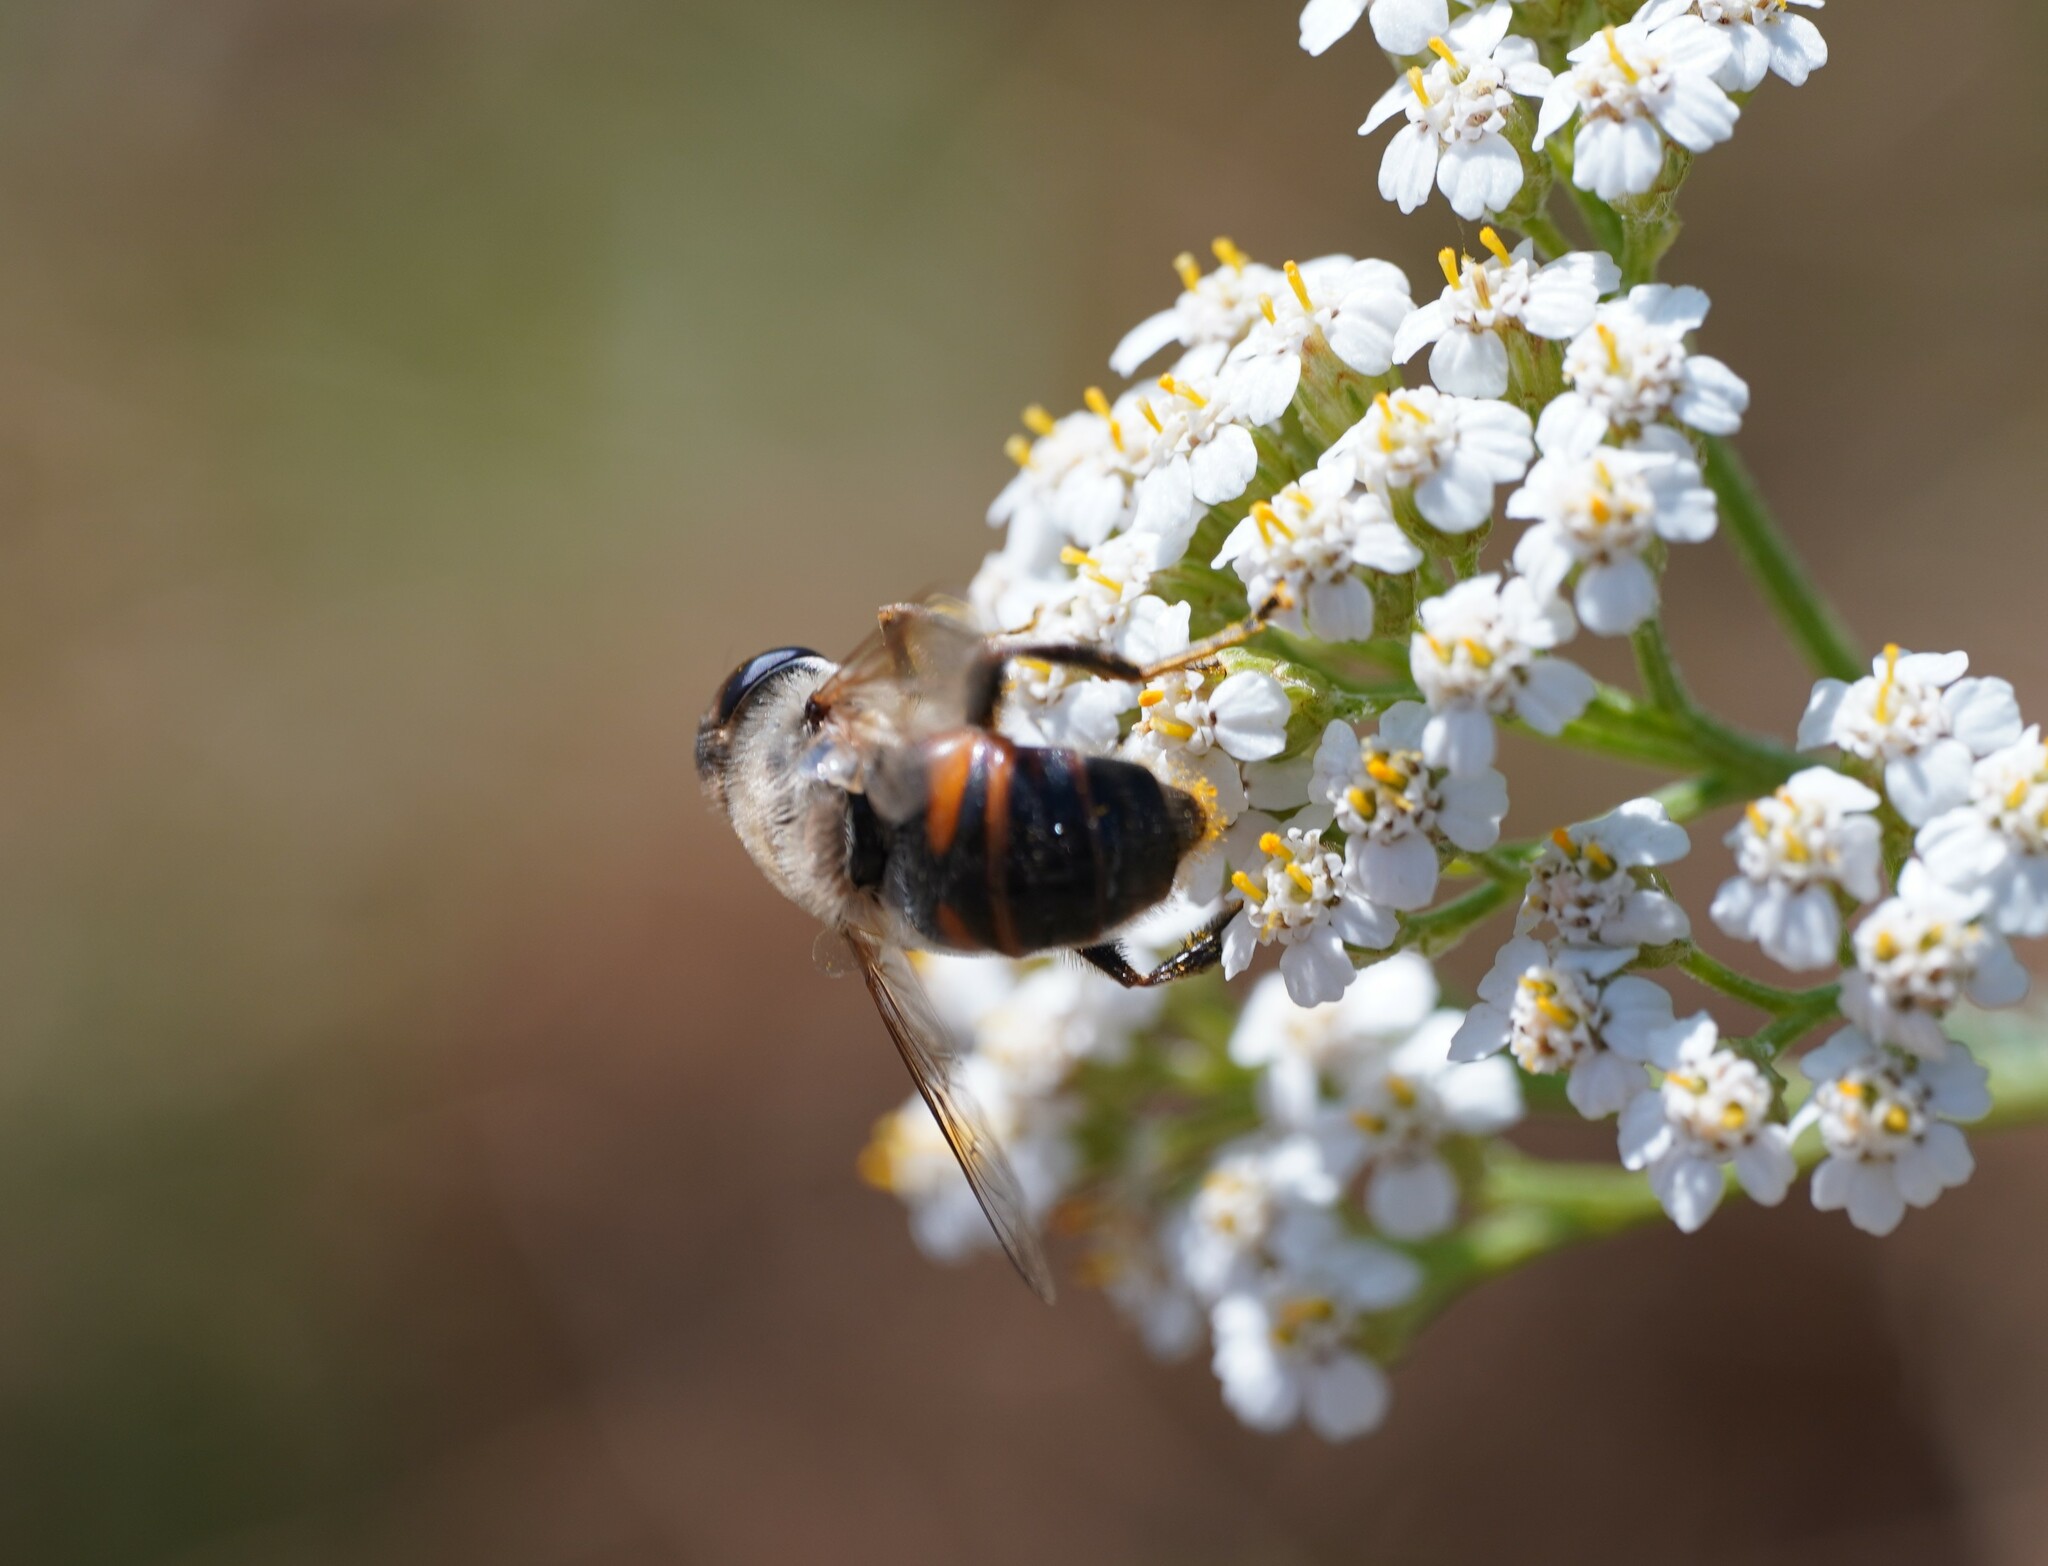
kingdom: Animalia
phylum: Arthropoda
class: Insecta
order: Diptera
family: Syrphidae
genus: Eristalis
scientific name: Eristalis tenax
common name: Drone fly
